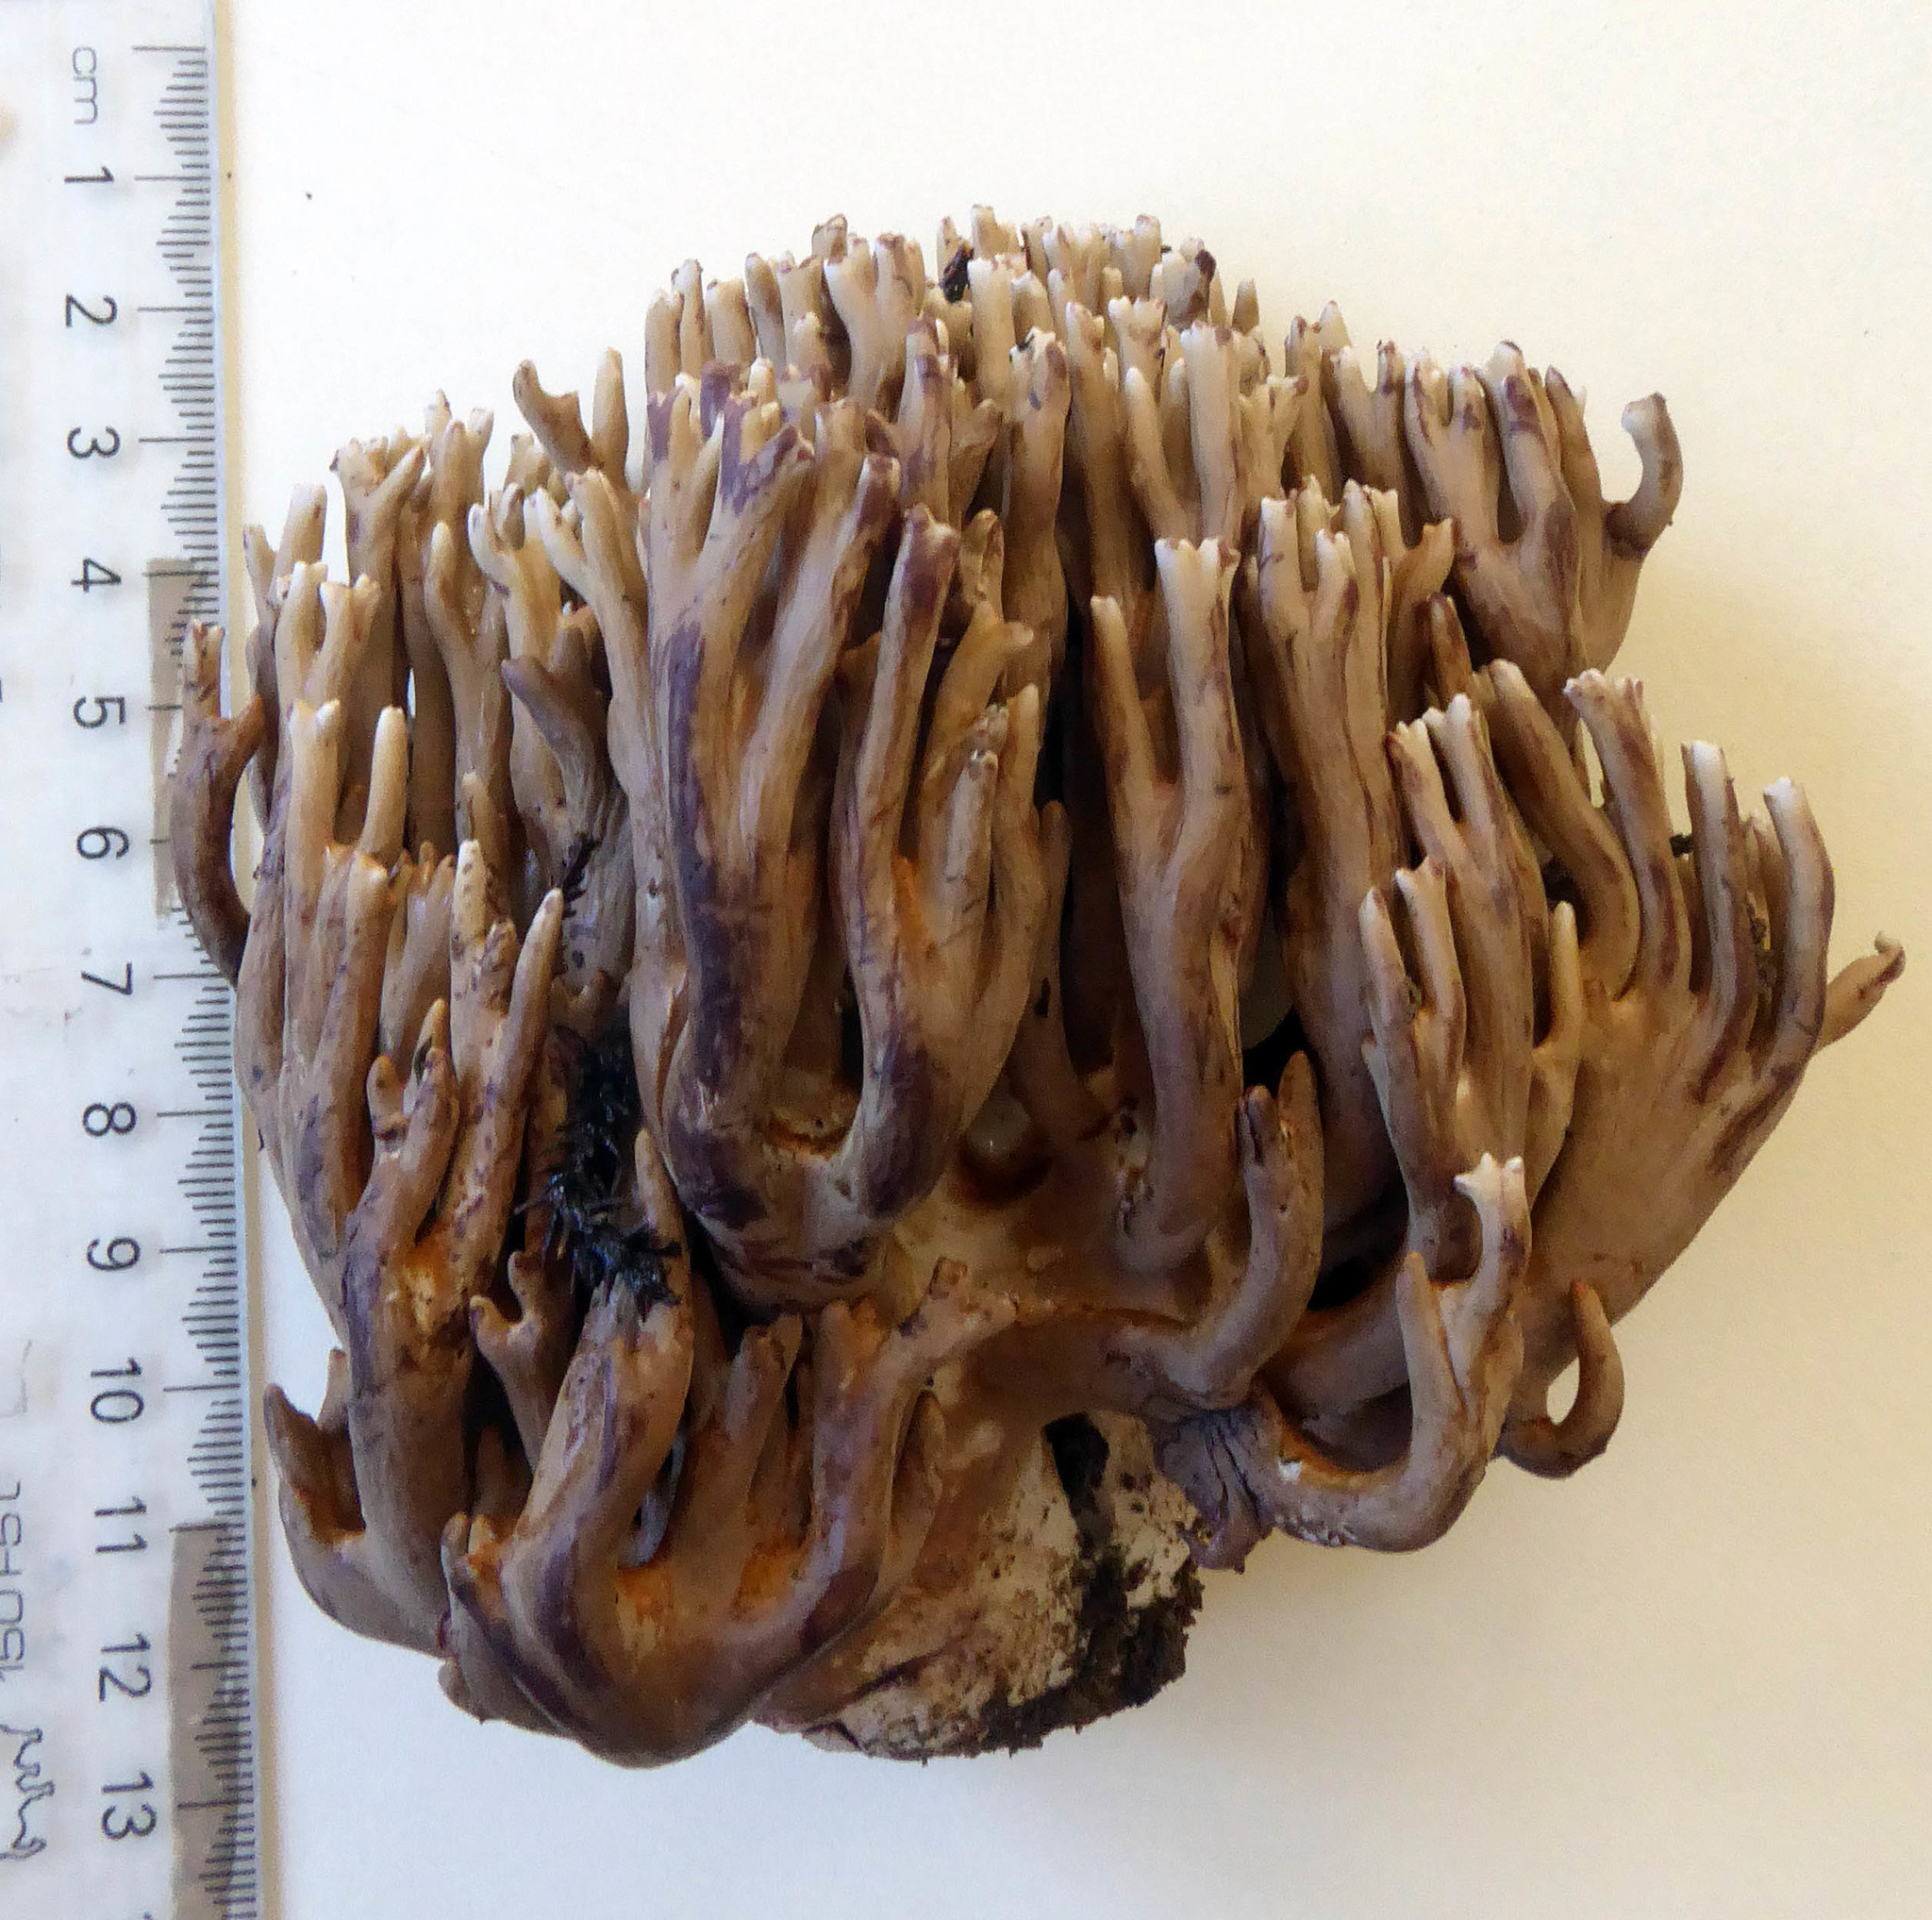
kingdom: Fungi
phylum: Basidiomycota
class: Agaricomycetes
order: Gomphales
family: Gomphaceae
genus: Phaeoclavulina
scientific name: Phaeoclavulina
